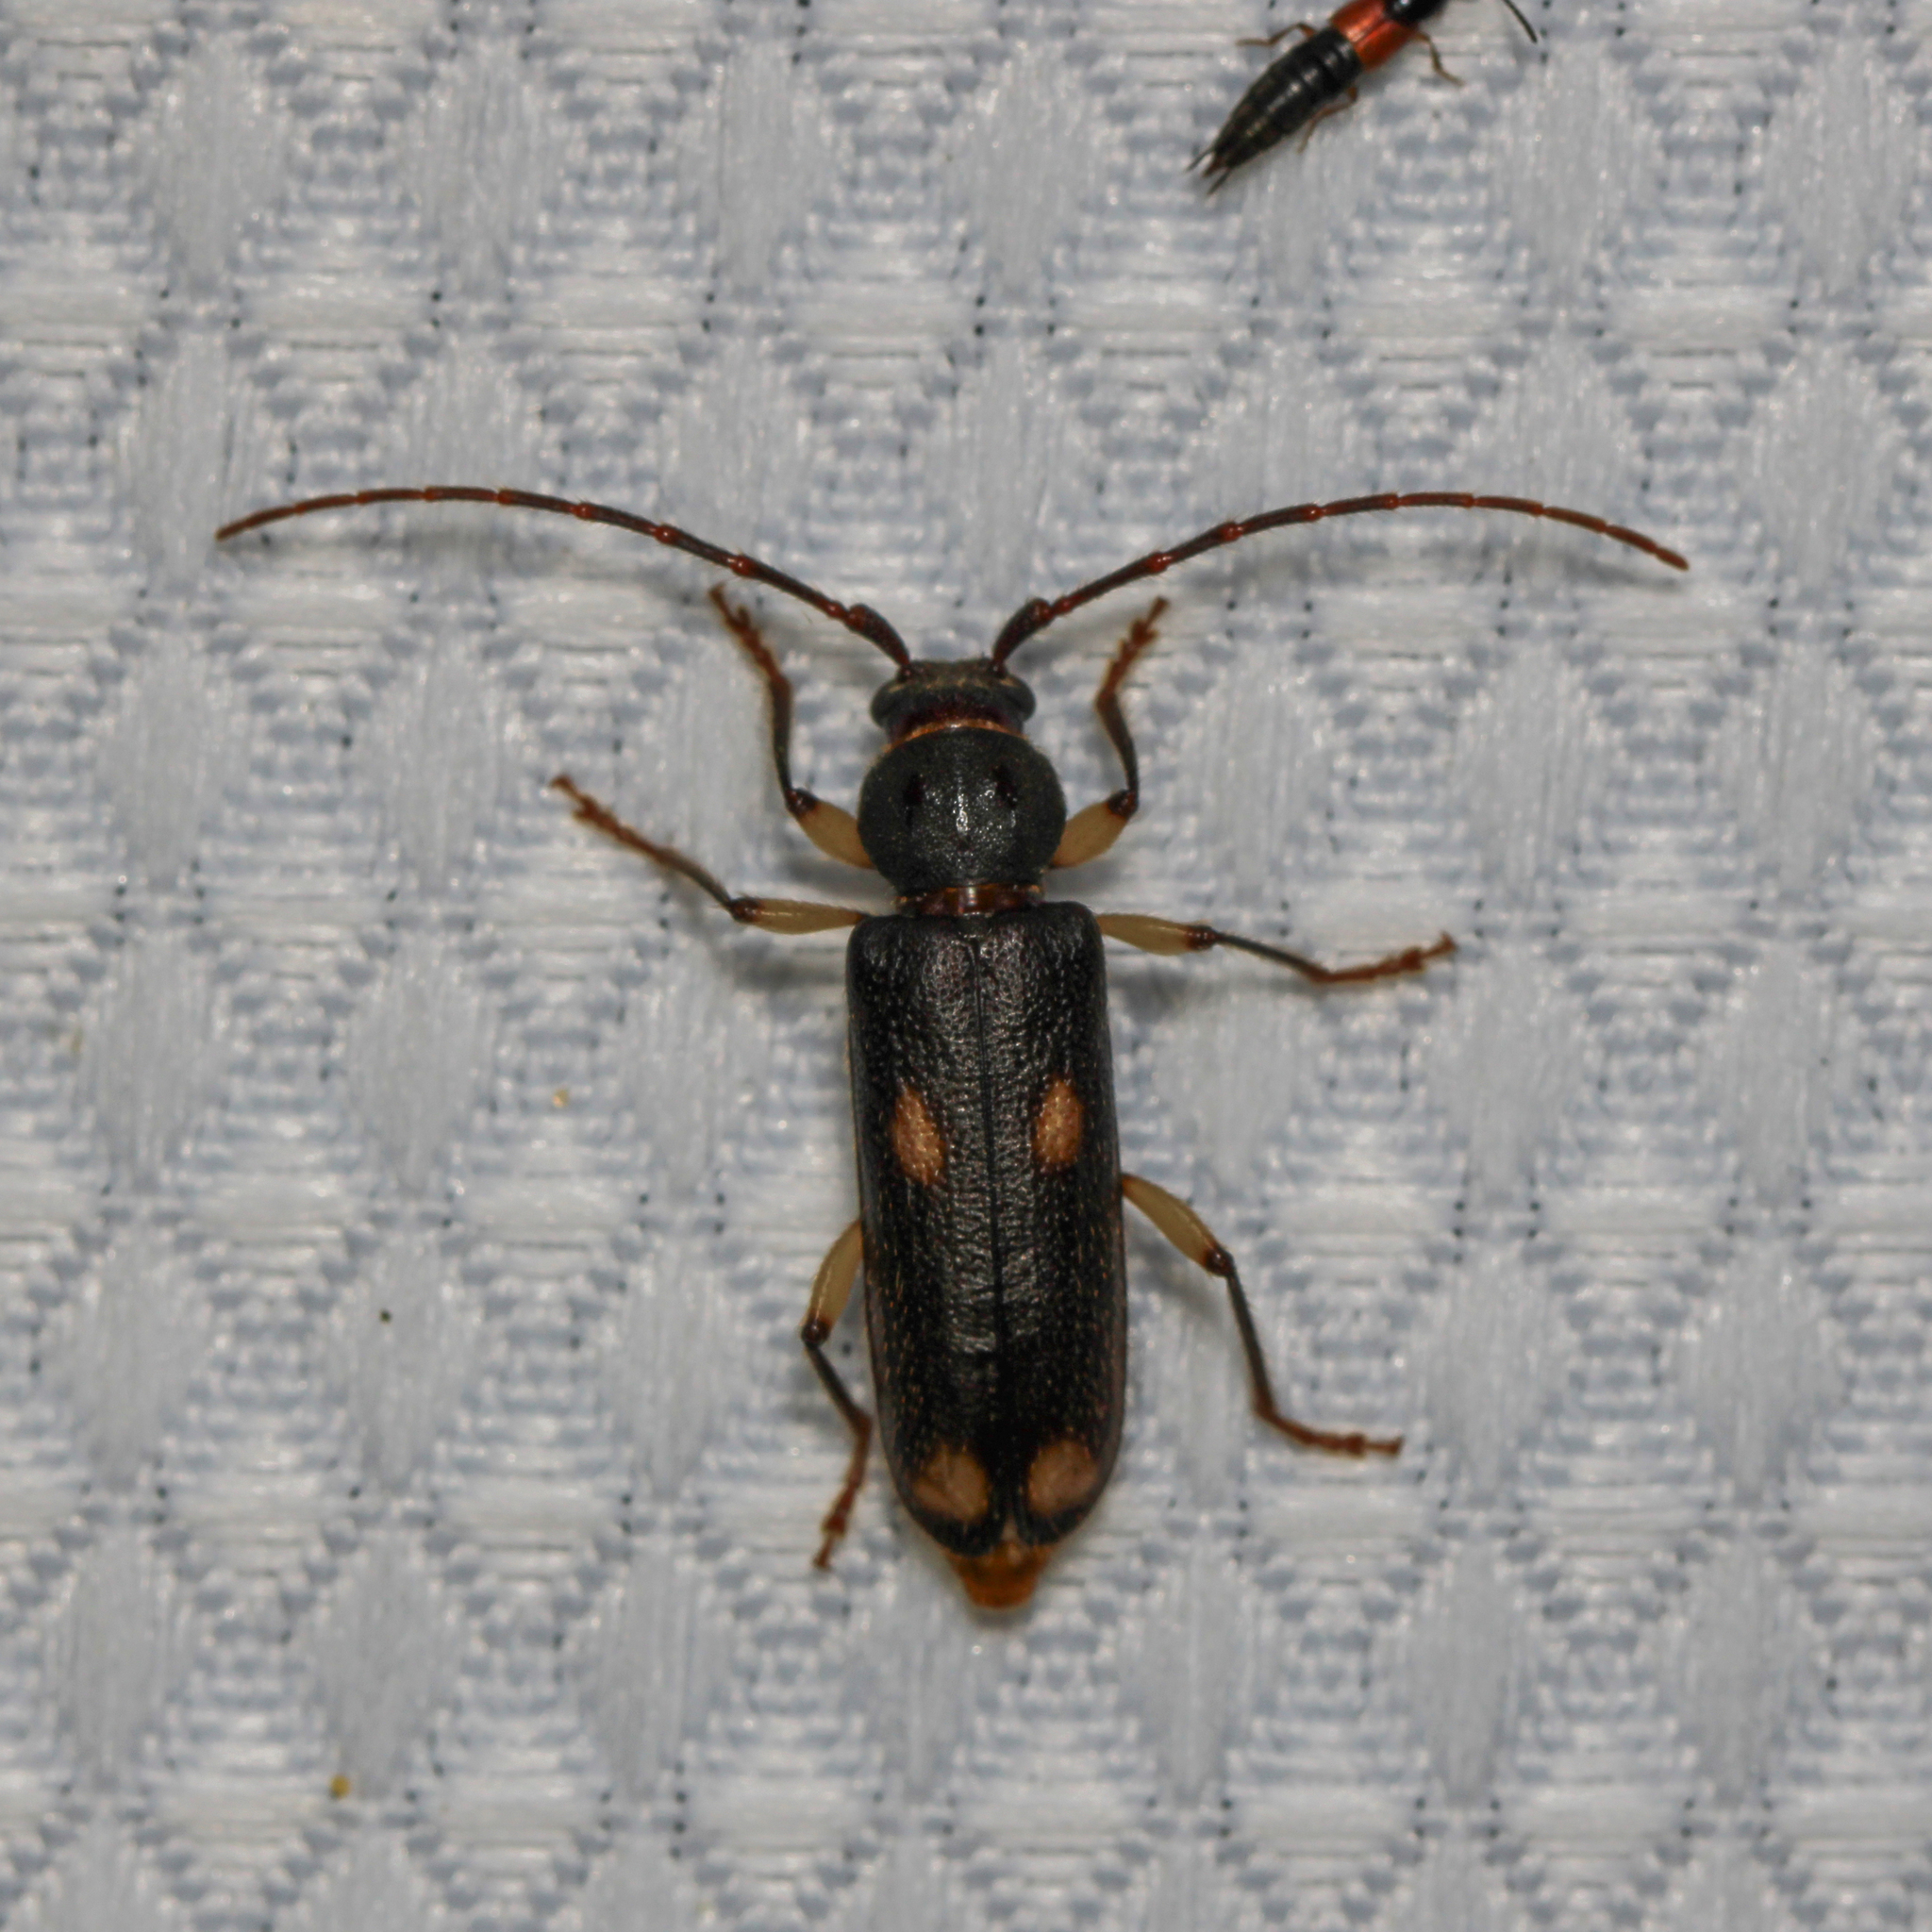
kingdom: Animalia
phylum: Arthropoda
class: Insecta
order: Coleoptera
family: Cerambycidae
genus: Tylonotus
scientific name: Tylonotus bimaculatus
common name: Ash and privet borer
